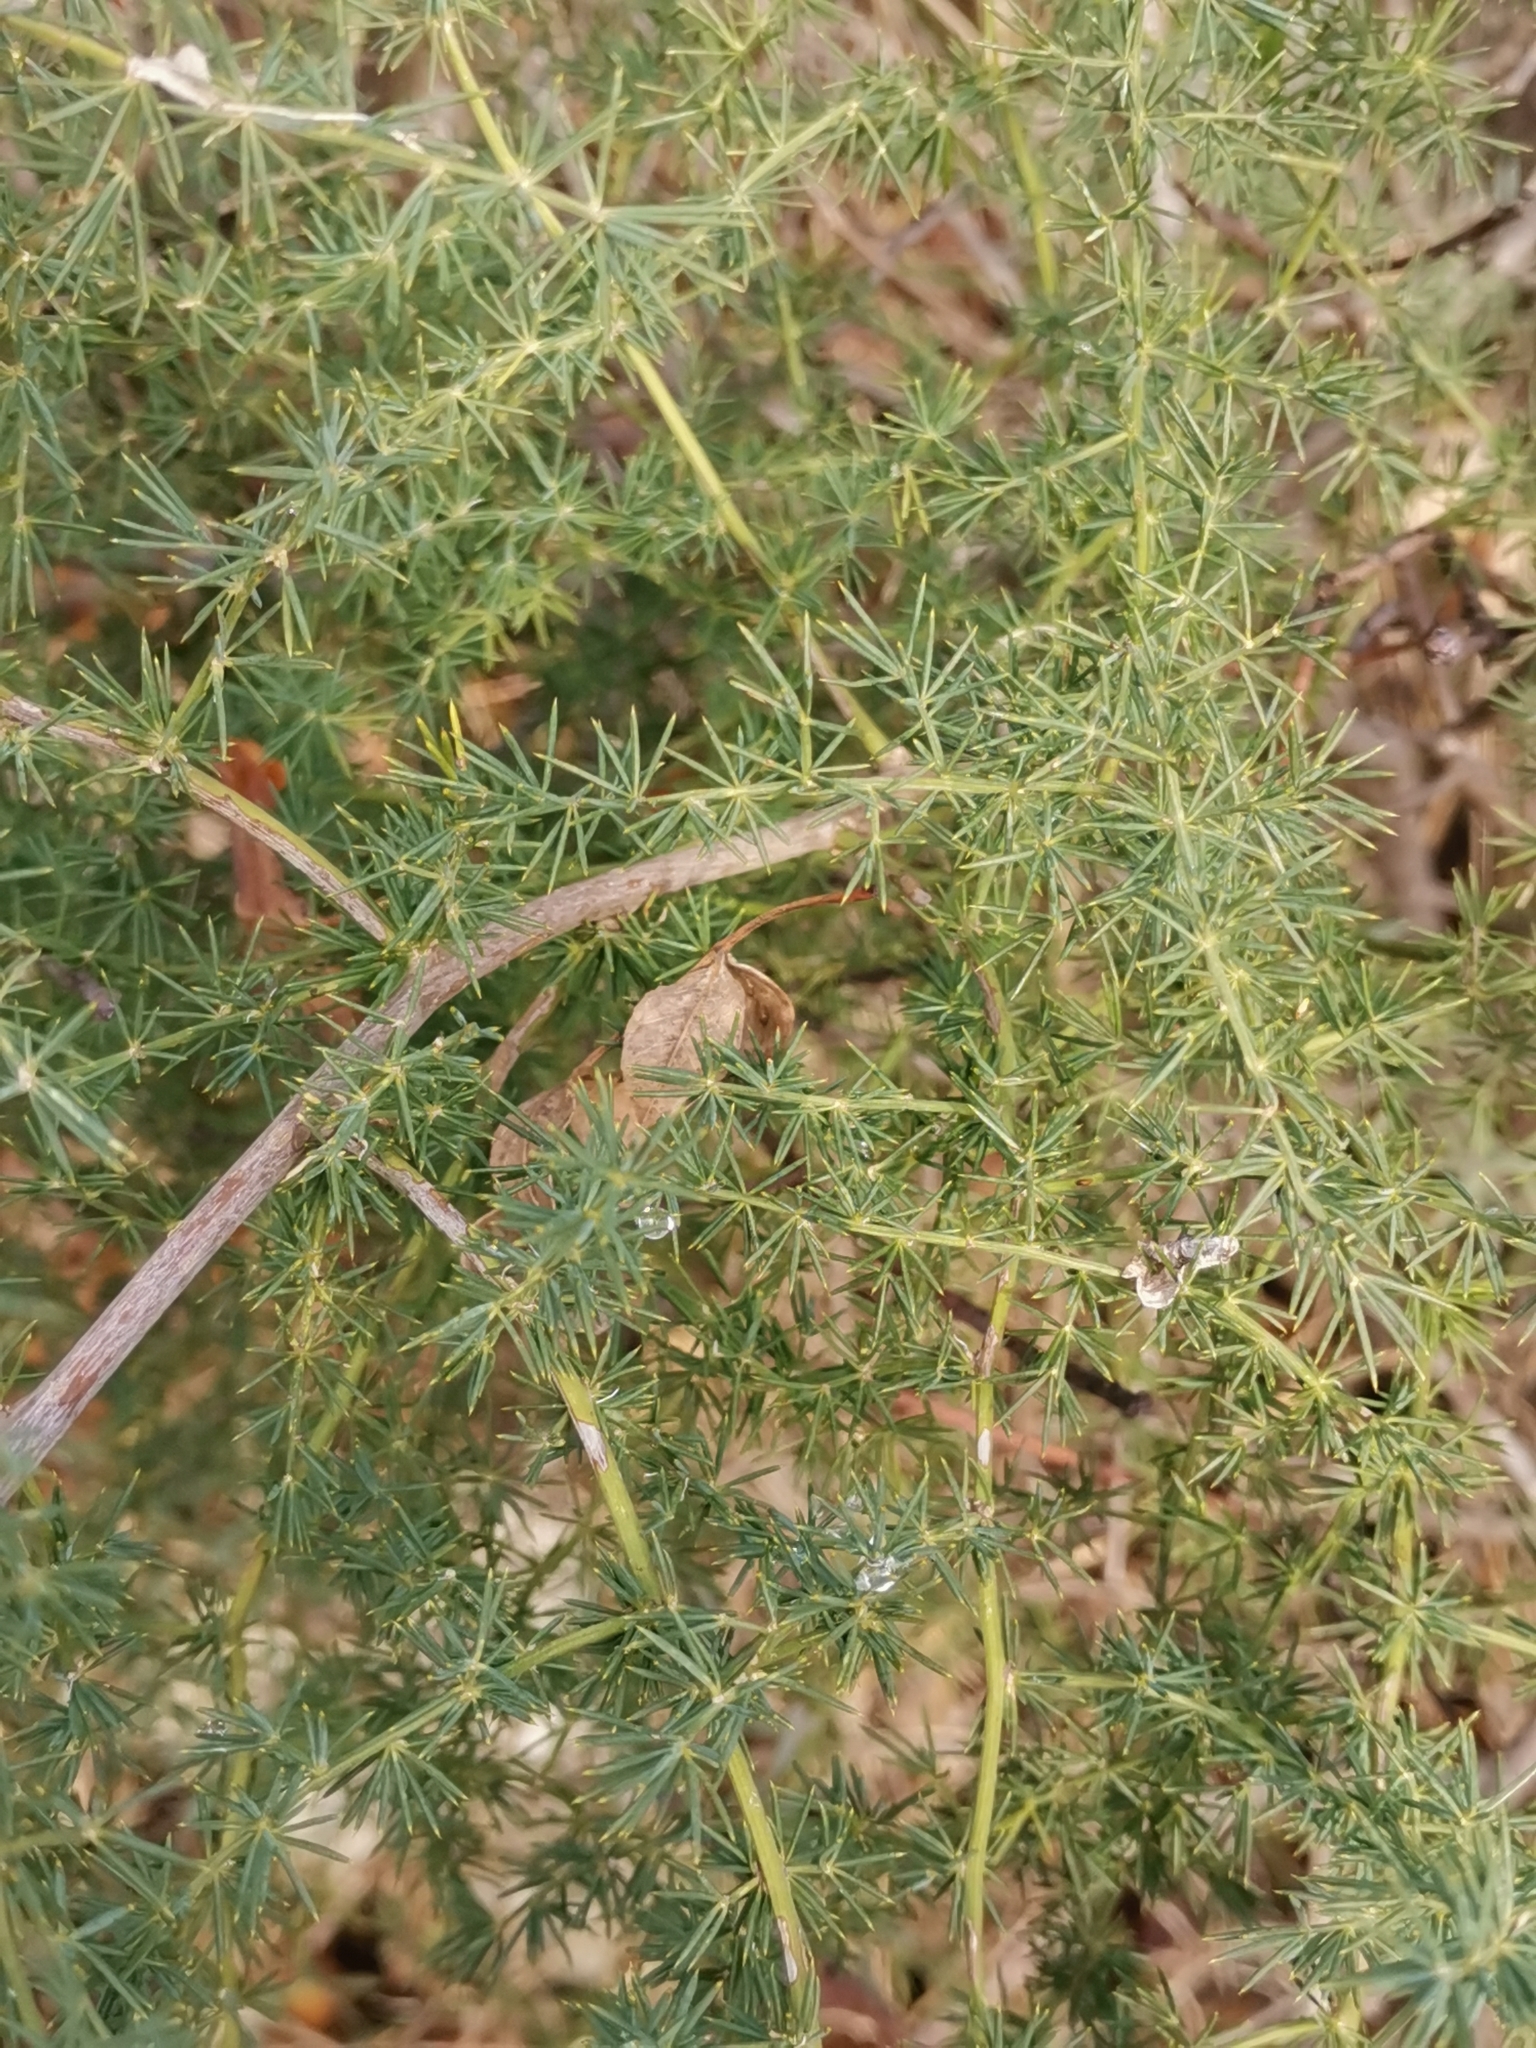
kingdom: Plantae
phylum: Tracheophyta
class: Liliopsida
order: Asparagales
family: Asparagaceae
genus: Asparagus
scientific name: Asparagus acutifolius
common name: Wild asparagus
